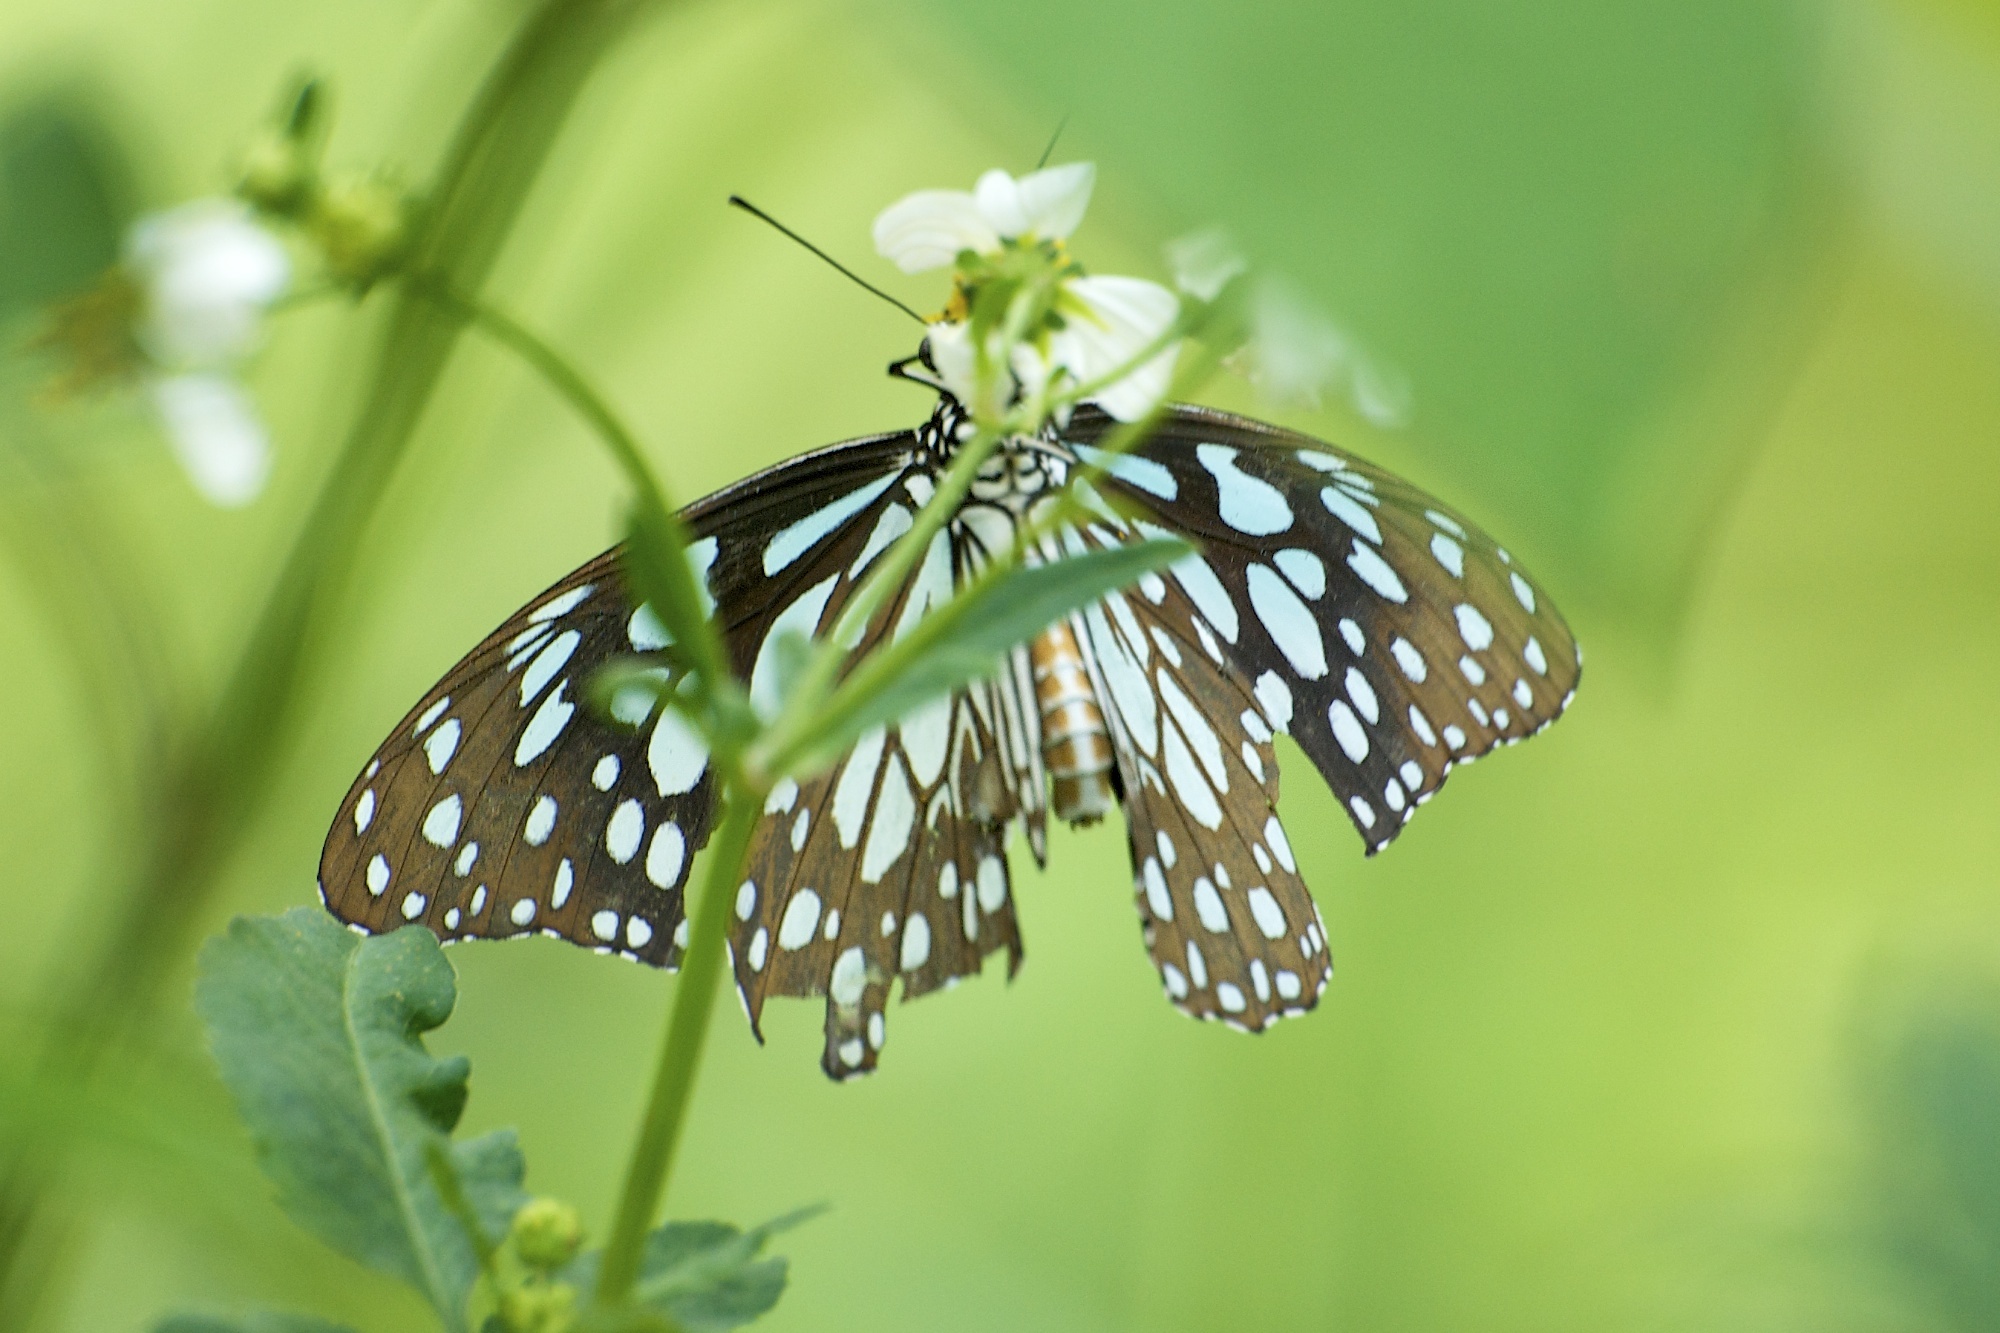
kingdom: Animalia
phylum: Arthropoda
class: Insecta
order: Lepidoptera
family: Nymphalidae
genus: Tirumala
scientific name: Tirumala limniace
